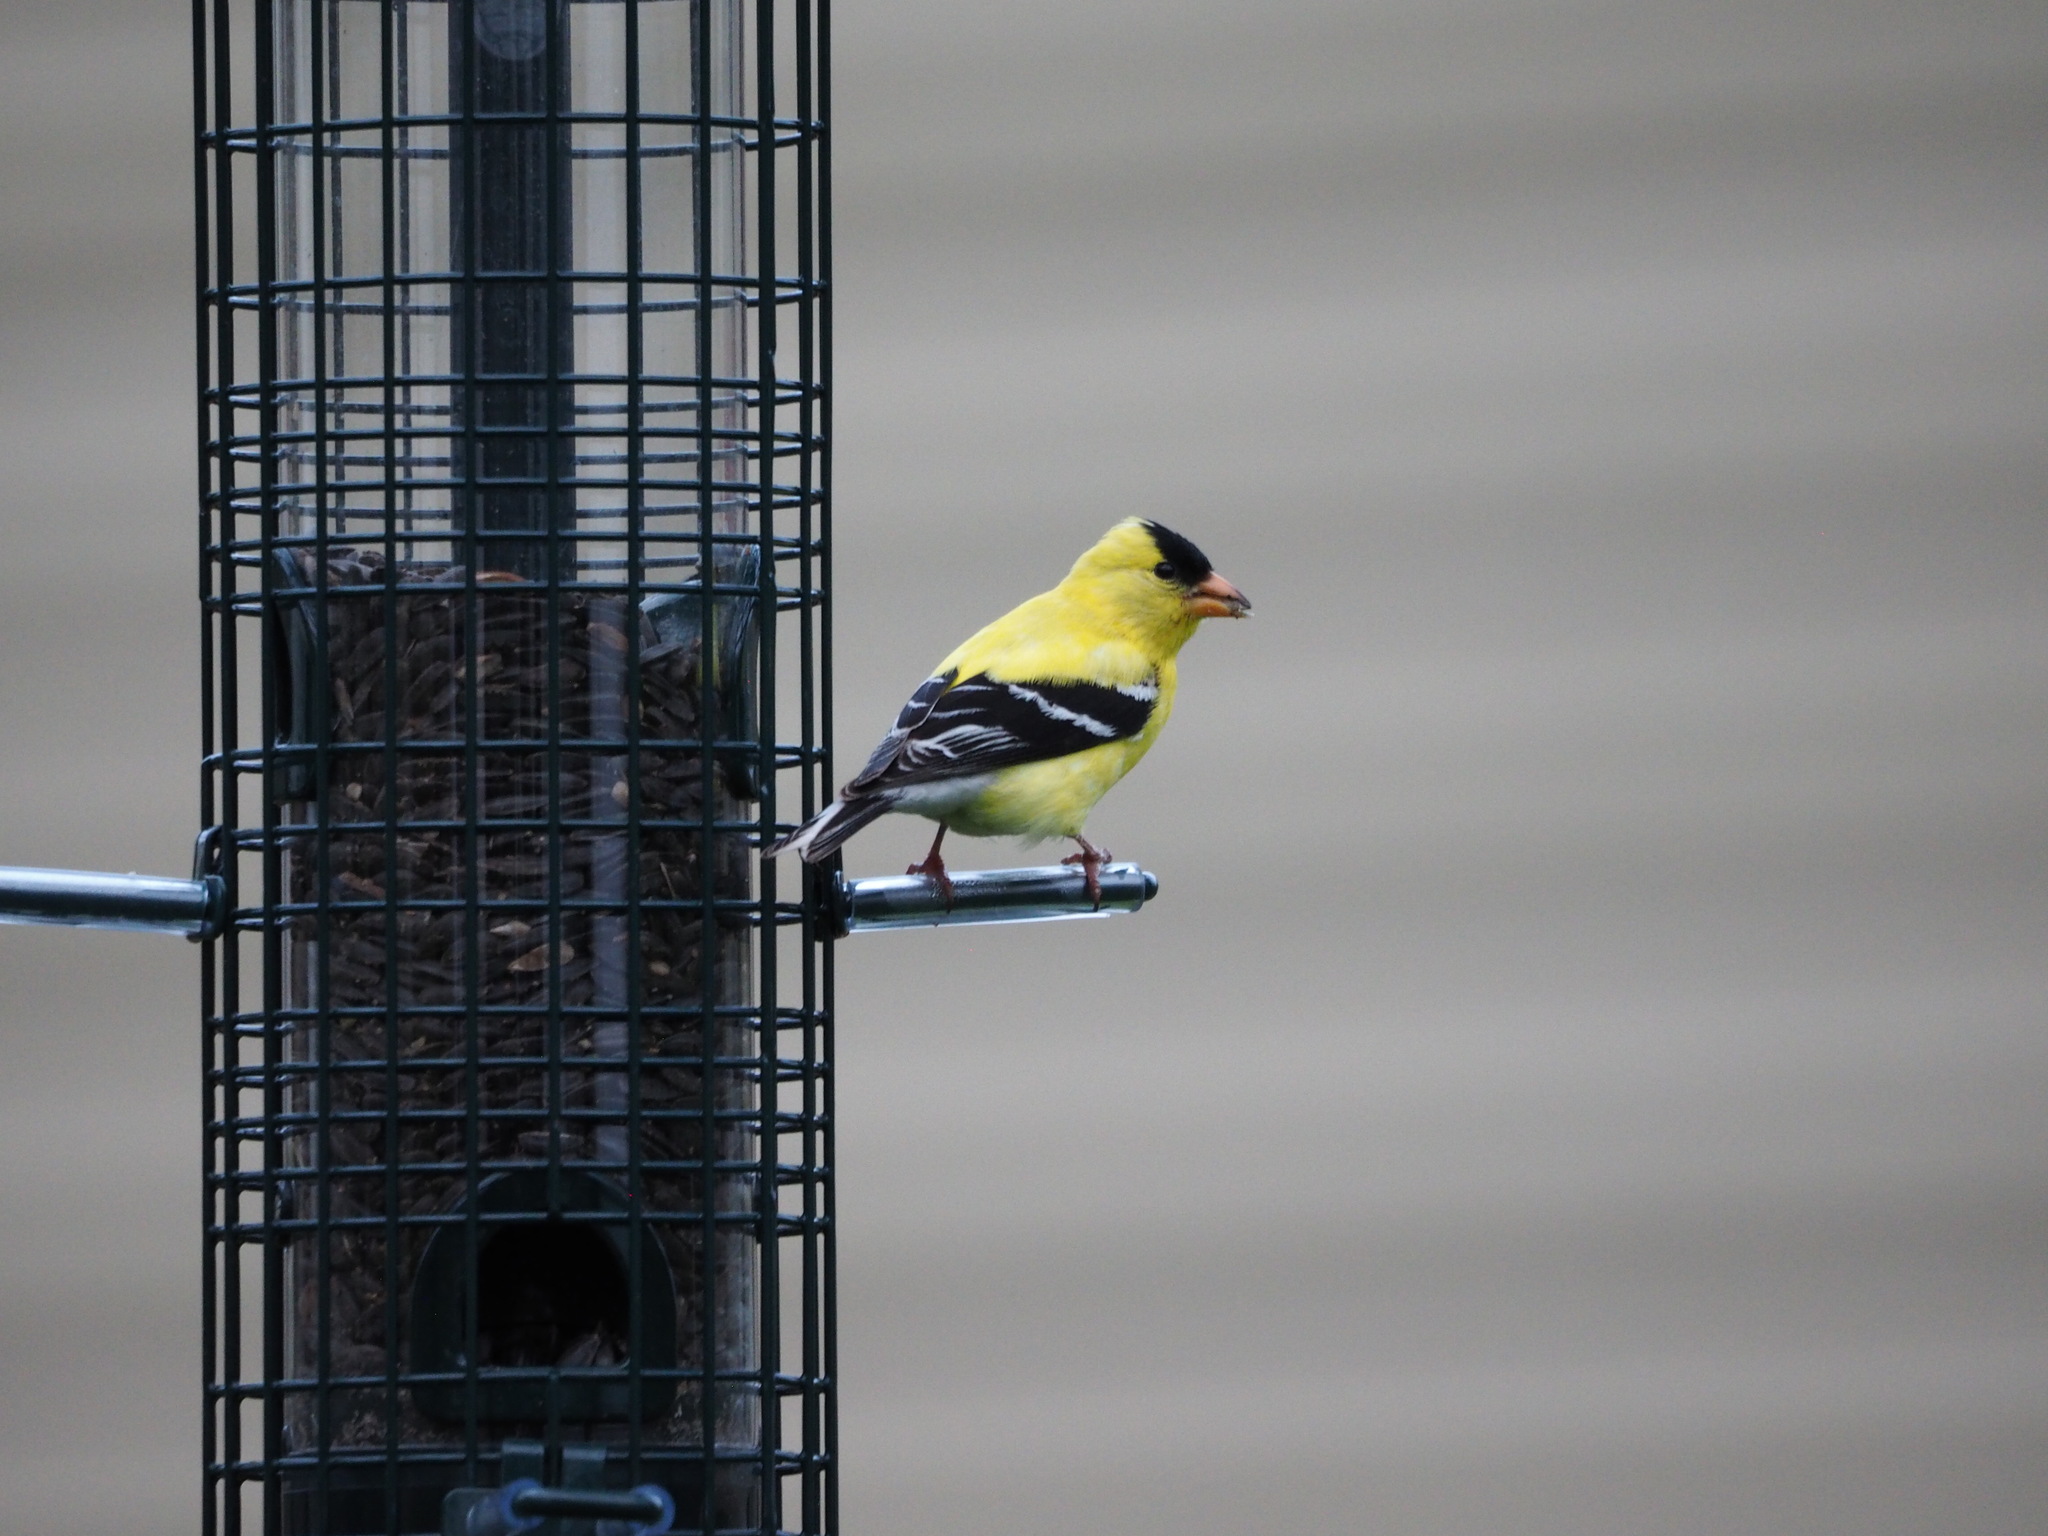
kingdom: Animalia
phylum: Chordata
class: Aves
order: Passeriformes
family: Fringillidae
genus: Spinus
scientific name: Spinus tristis
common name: American goldfinch
